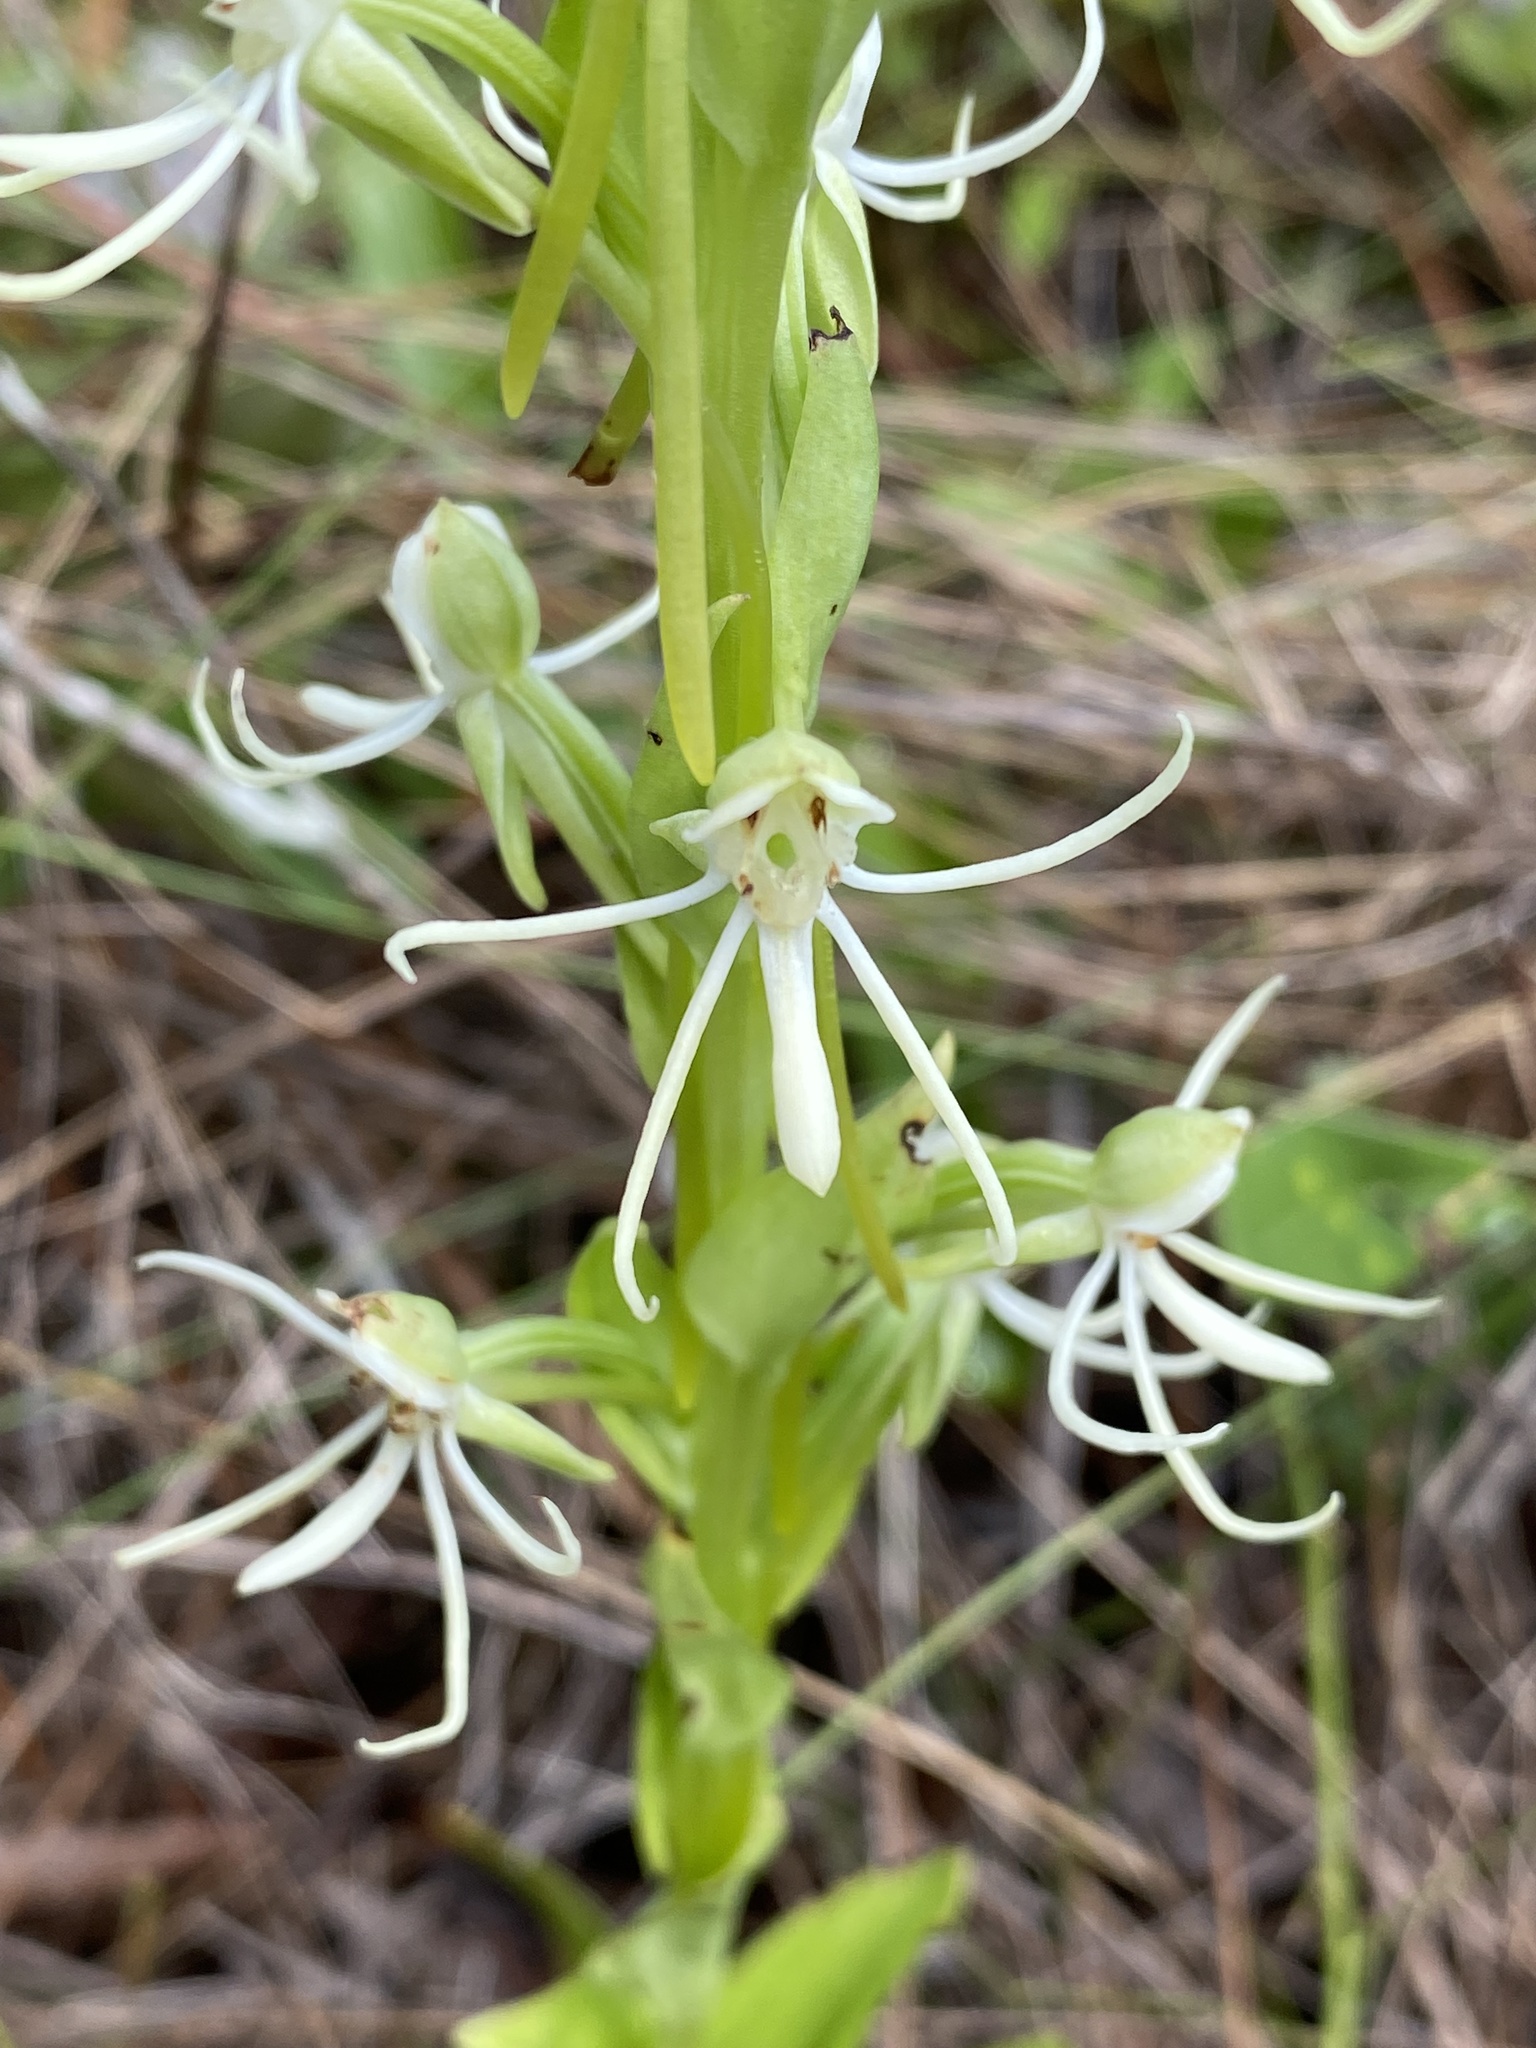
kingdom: Plantae
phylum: Tracheophyta
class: Liliopsida
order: Asparagales
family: Orchidaceae
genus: Habenaria
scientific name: Habenaria quinqueseta
